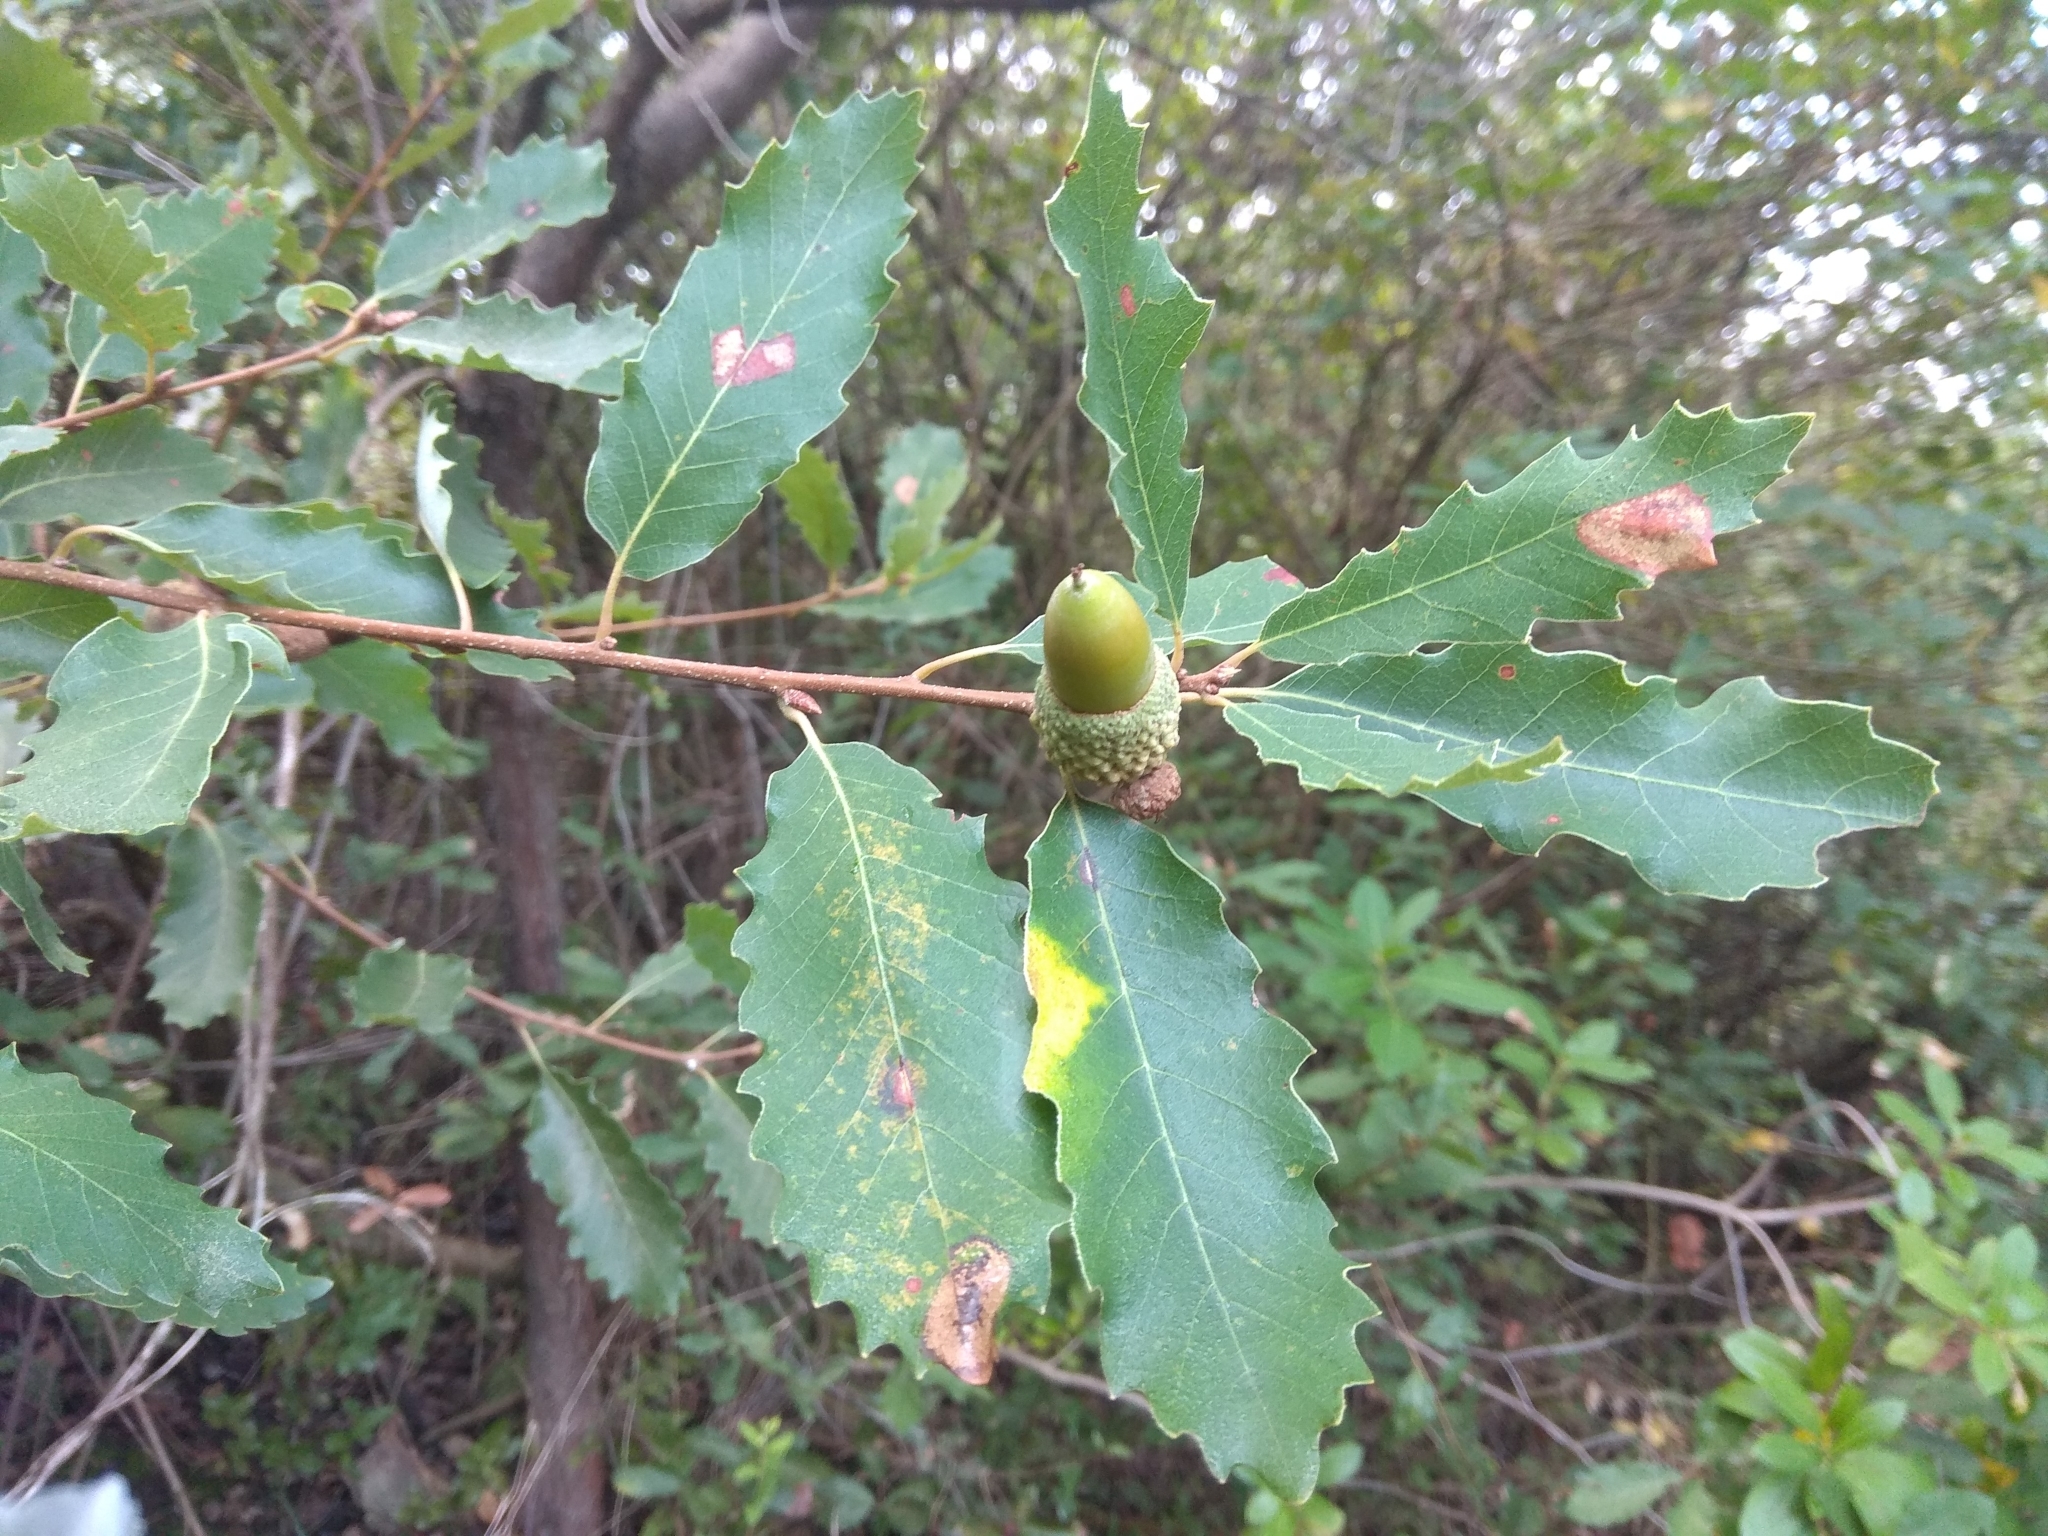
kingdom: Plantae
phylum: Tracheophyta
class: Magnoliopsida
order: Fagales
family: Fagaceae
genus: Quercus
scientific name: Quercus faginea
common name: Gall oak tree
